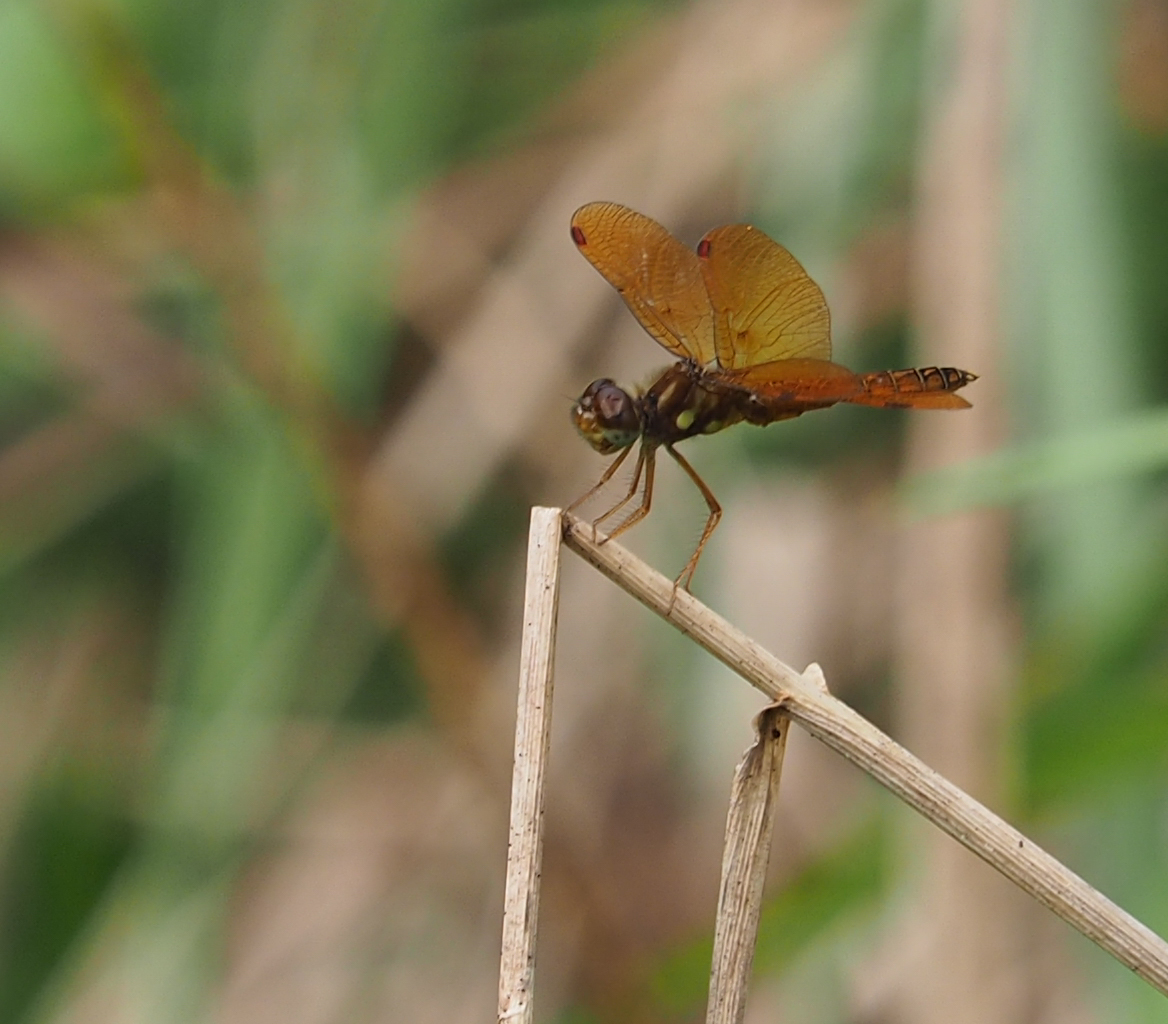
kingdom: Animalia
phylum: Arthropoda
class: Insecta
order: Odonata
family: Libellulidae
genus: Perithemis
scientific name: Perithemis tenera
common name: Eastern amberwing
